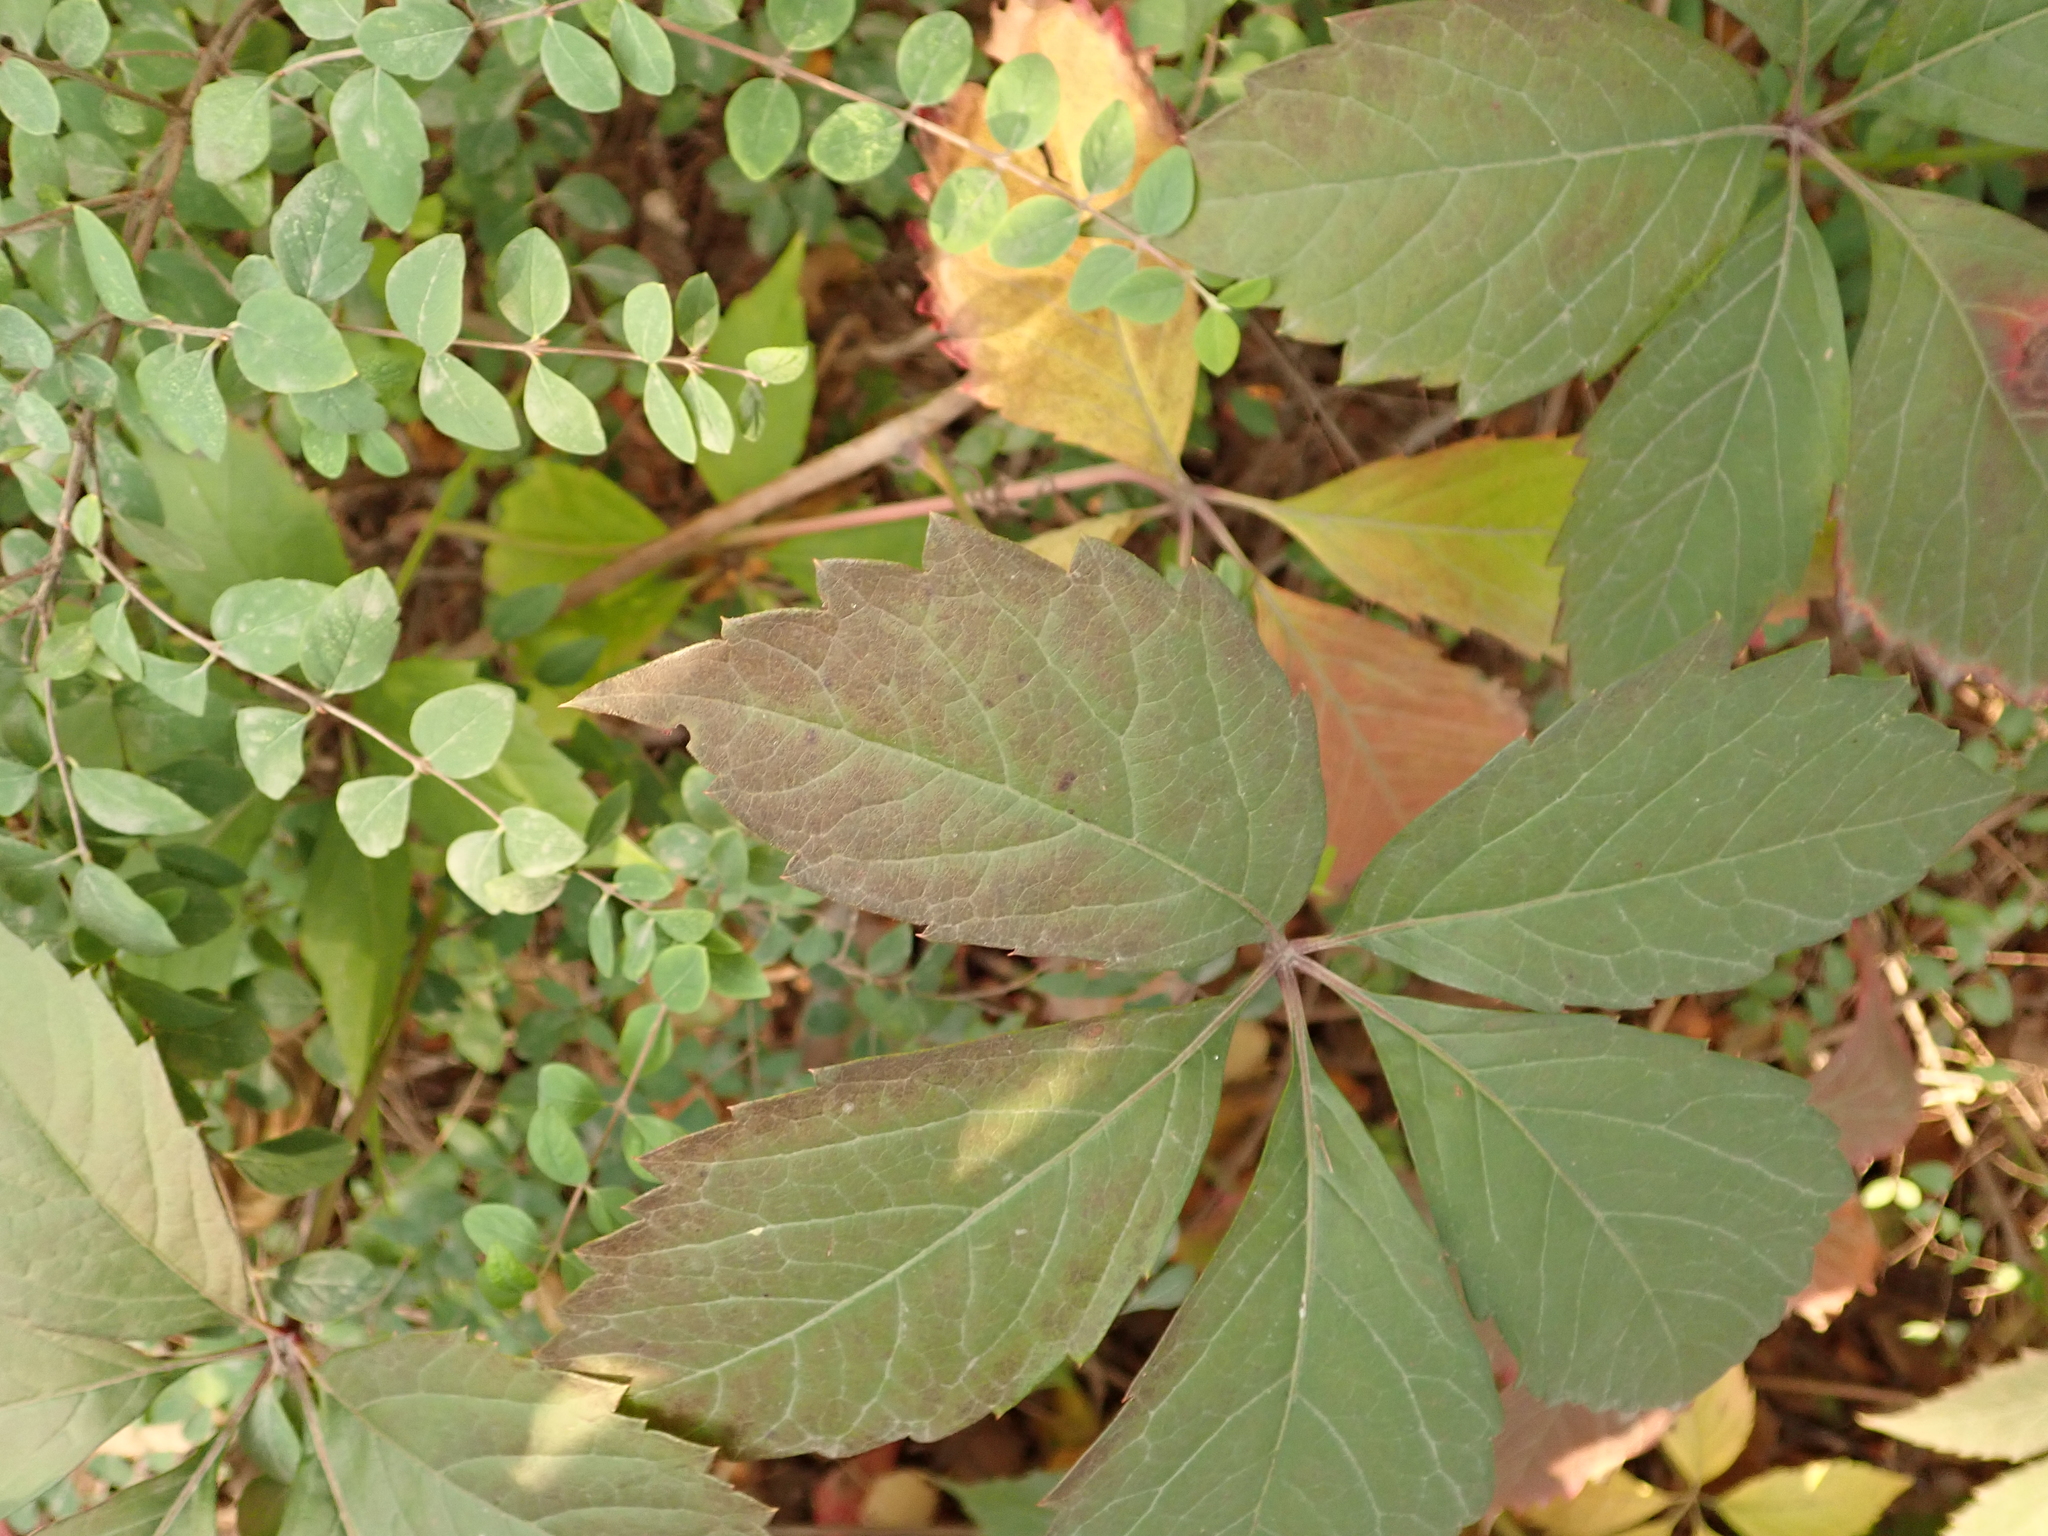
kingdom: Plantae
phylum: Tracheophyta
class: Magnoliopsida
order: Vitales
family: Vitaceae
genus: Parthenocissus
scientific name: Parthenocissus inserta
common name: False virginia-creeper
